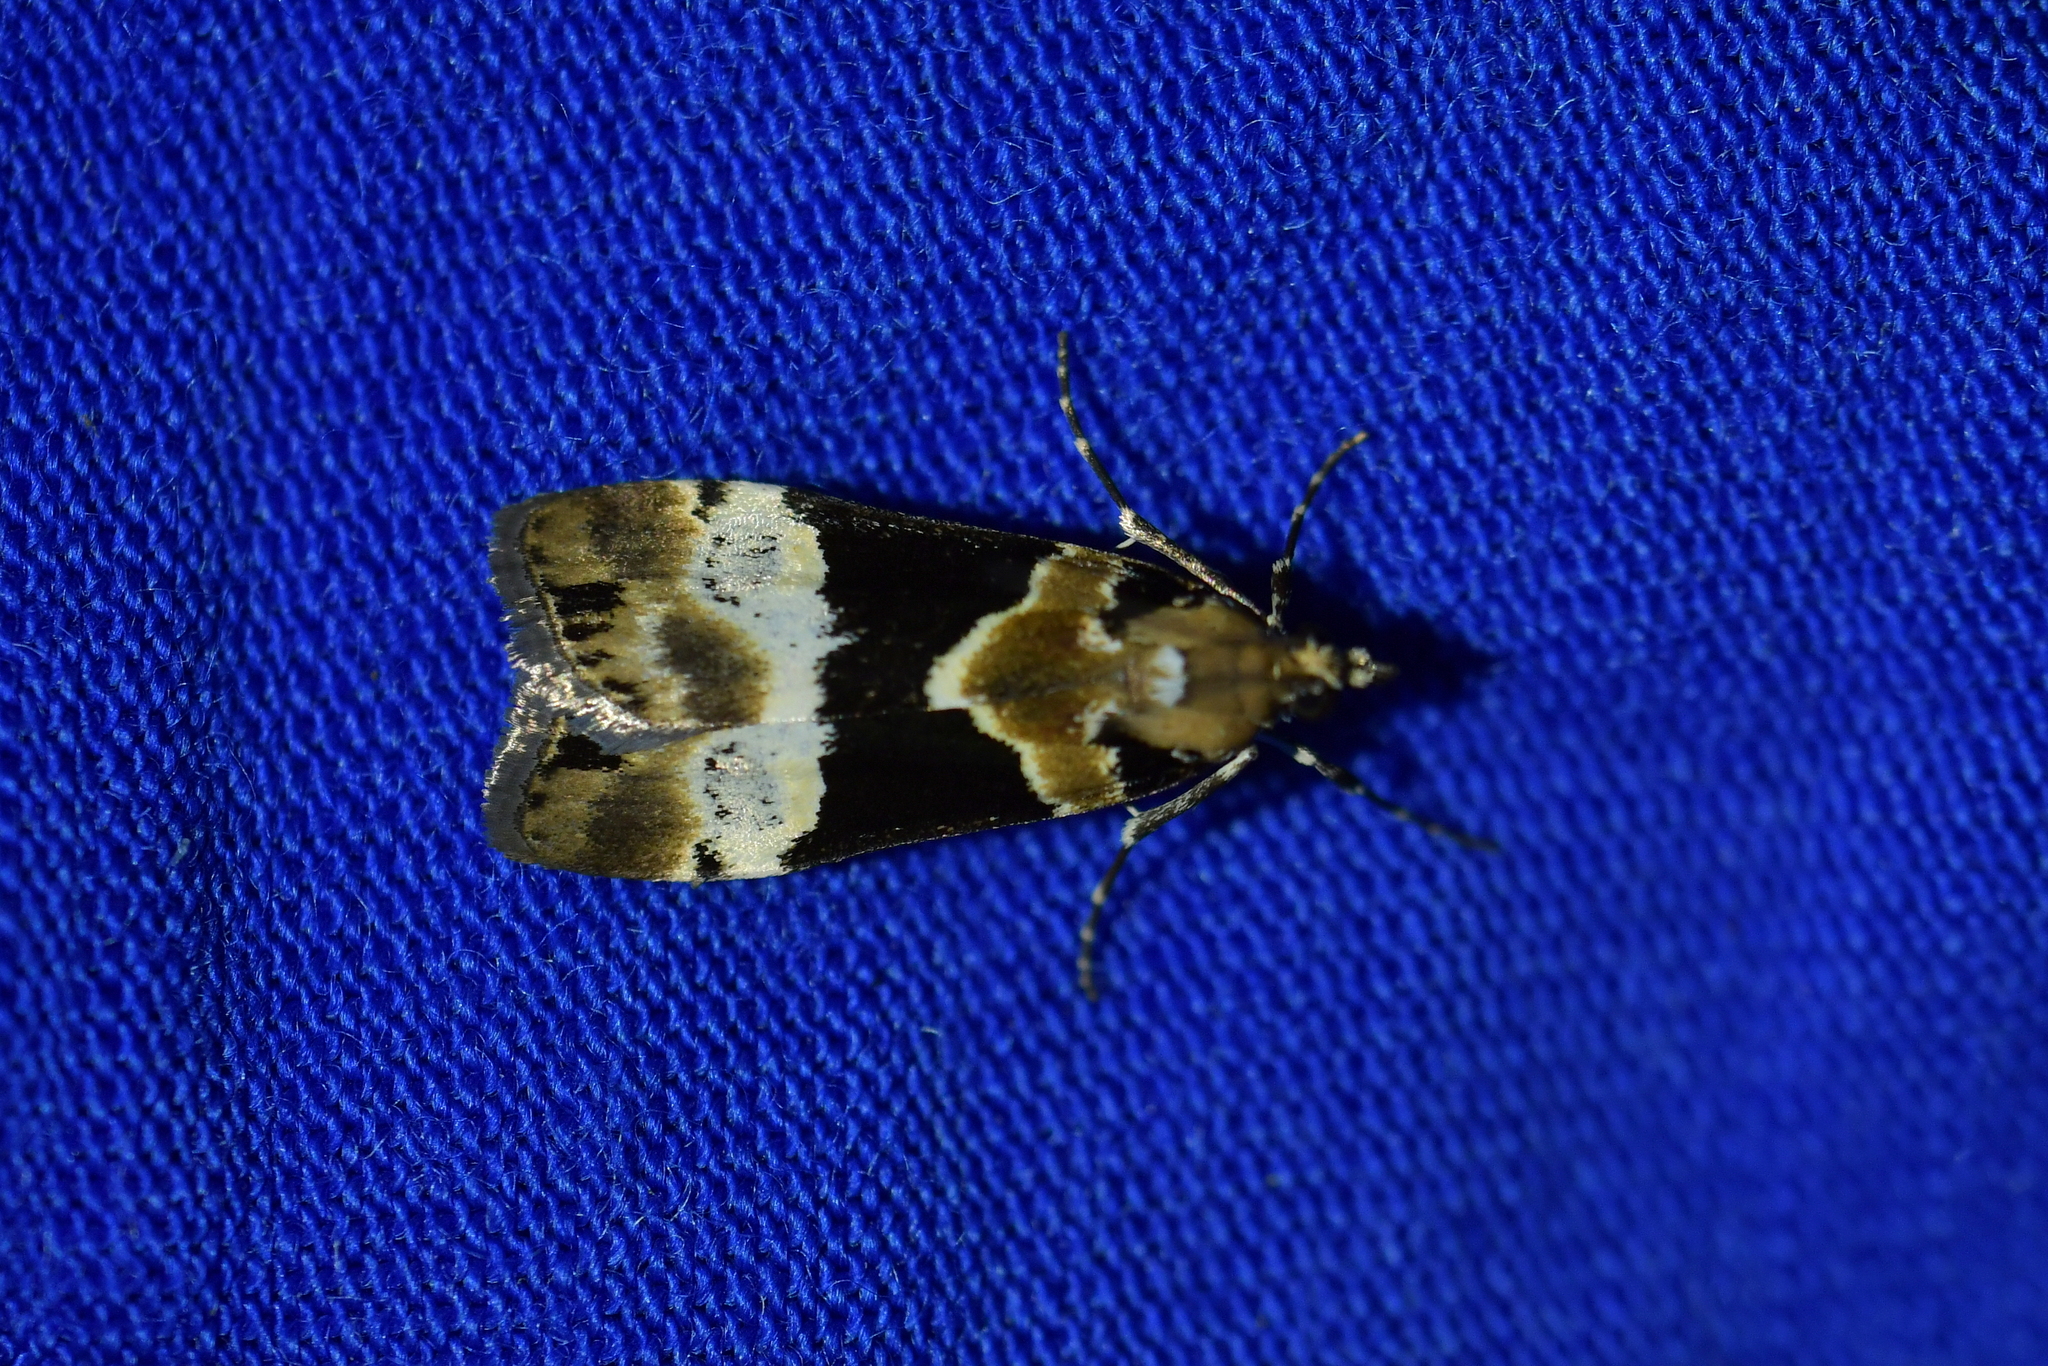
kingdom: Animalia
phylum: Arthropoda
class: Insecta
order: Lepidoptera
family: Crambidae
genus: Eudonia
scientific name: Eudonia aspidota
